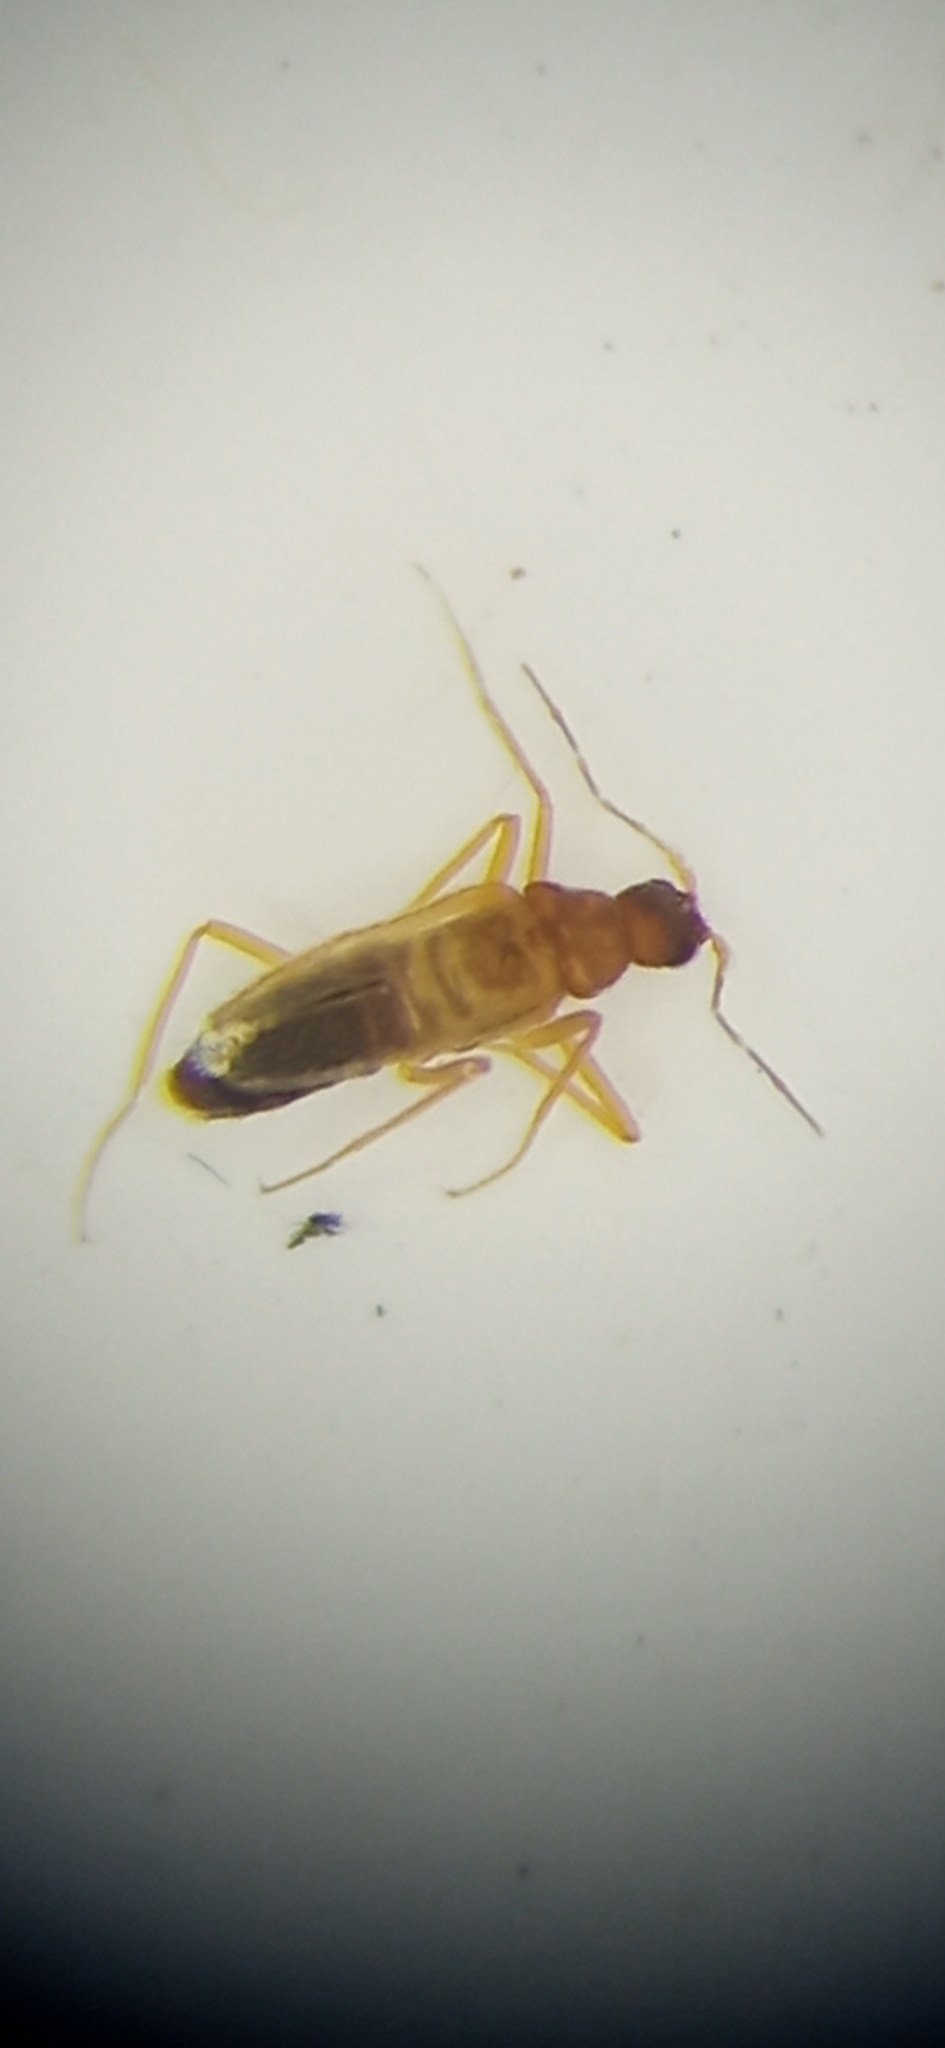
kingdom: Animalia
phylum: Arthropoda
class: Insecta
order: Coleoptera
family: Dermestidae
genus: Thylodrias
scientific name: Thylodrias contractus
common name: Odd beetle
